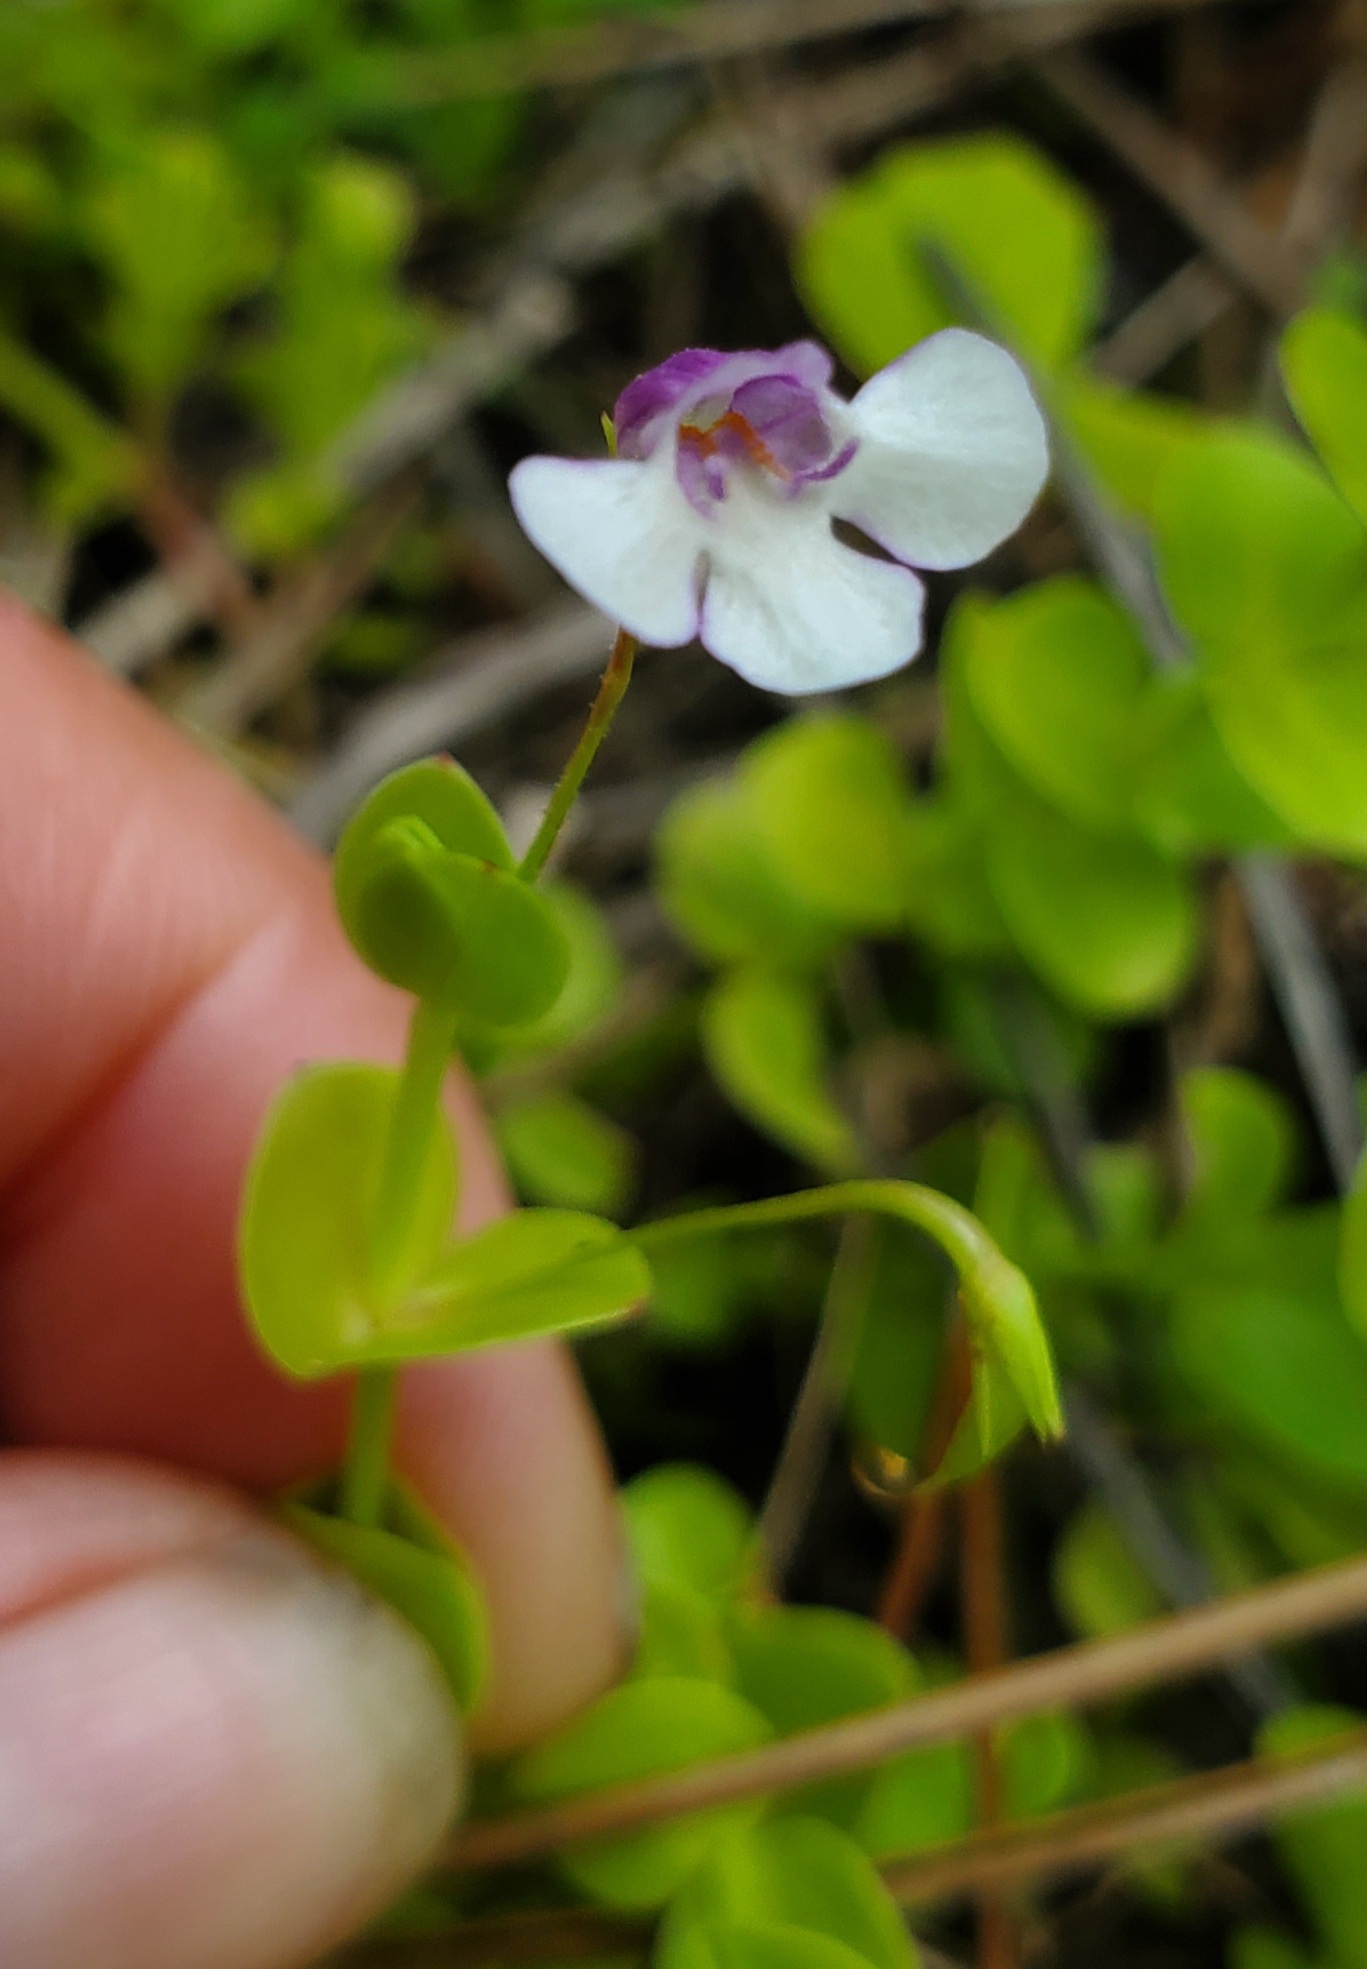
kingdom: Plantae
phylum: Tracheophyta
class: Magnoliopsida
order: Lamiales
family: Linderniaceae
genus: Lindernia
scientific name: Lindernia grandiflora
